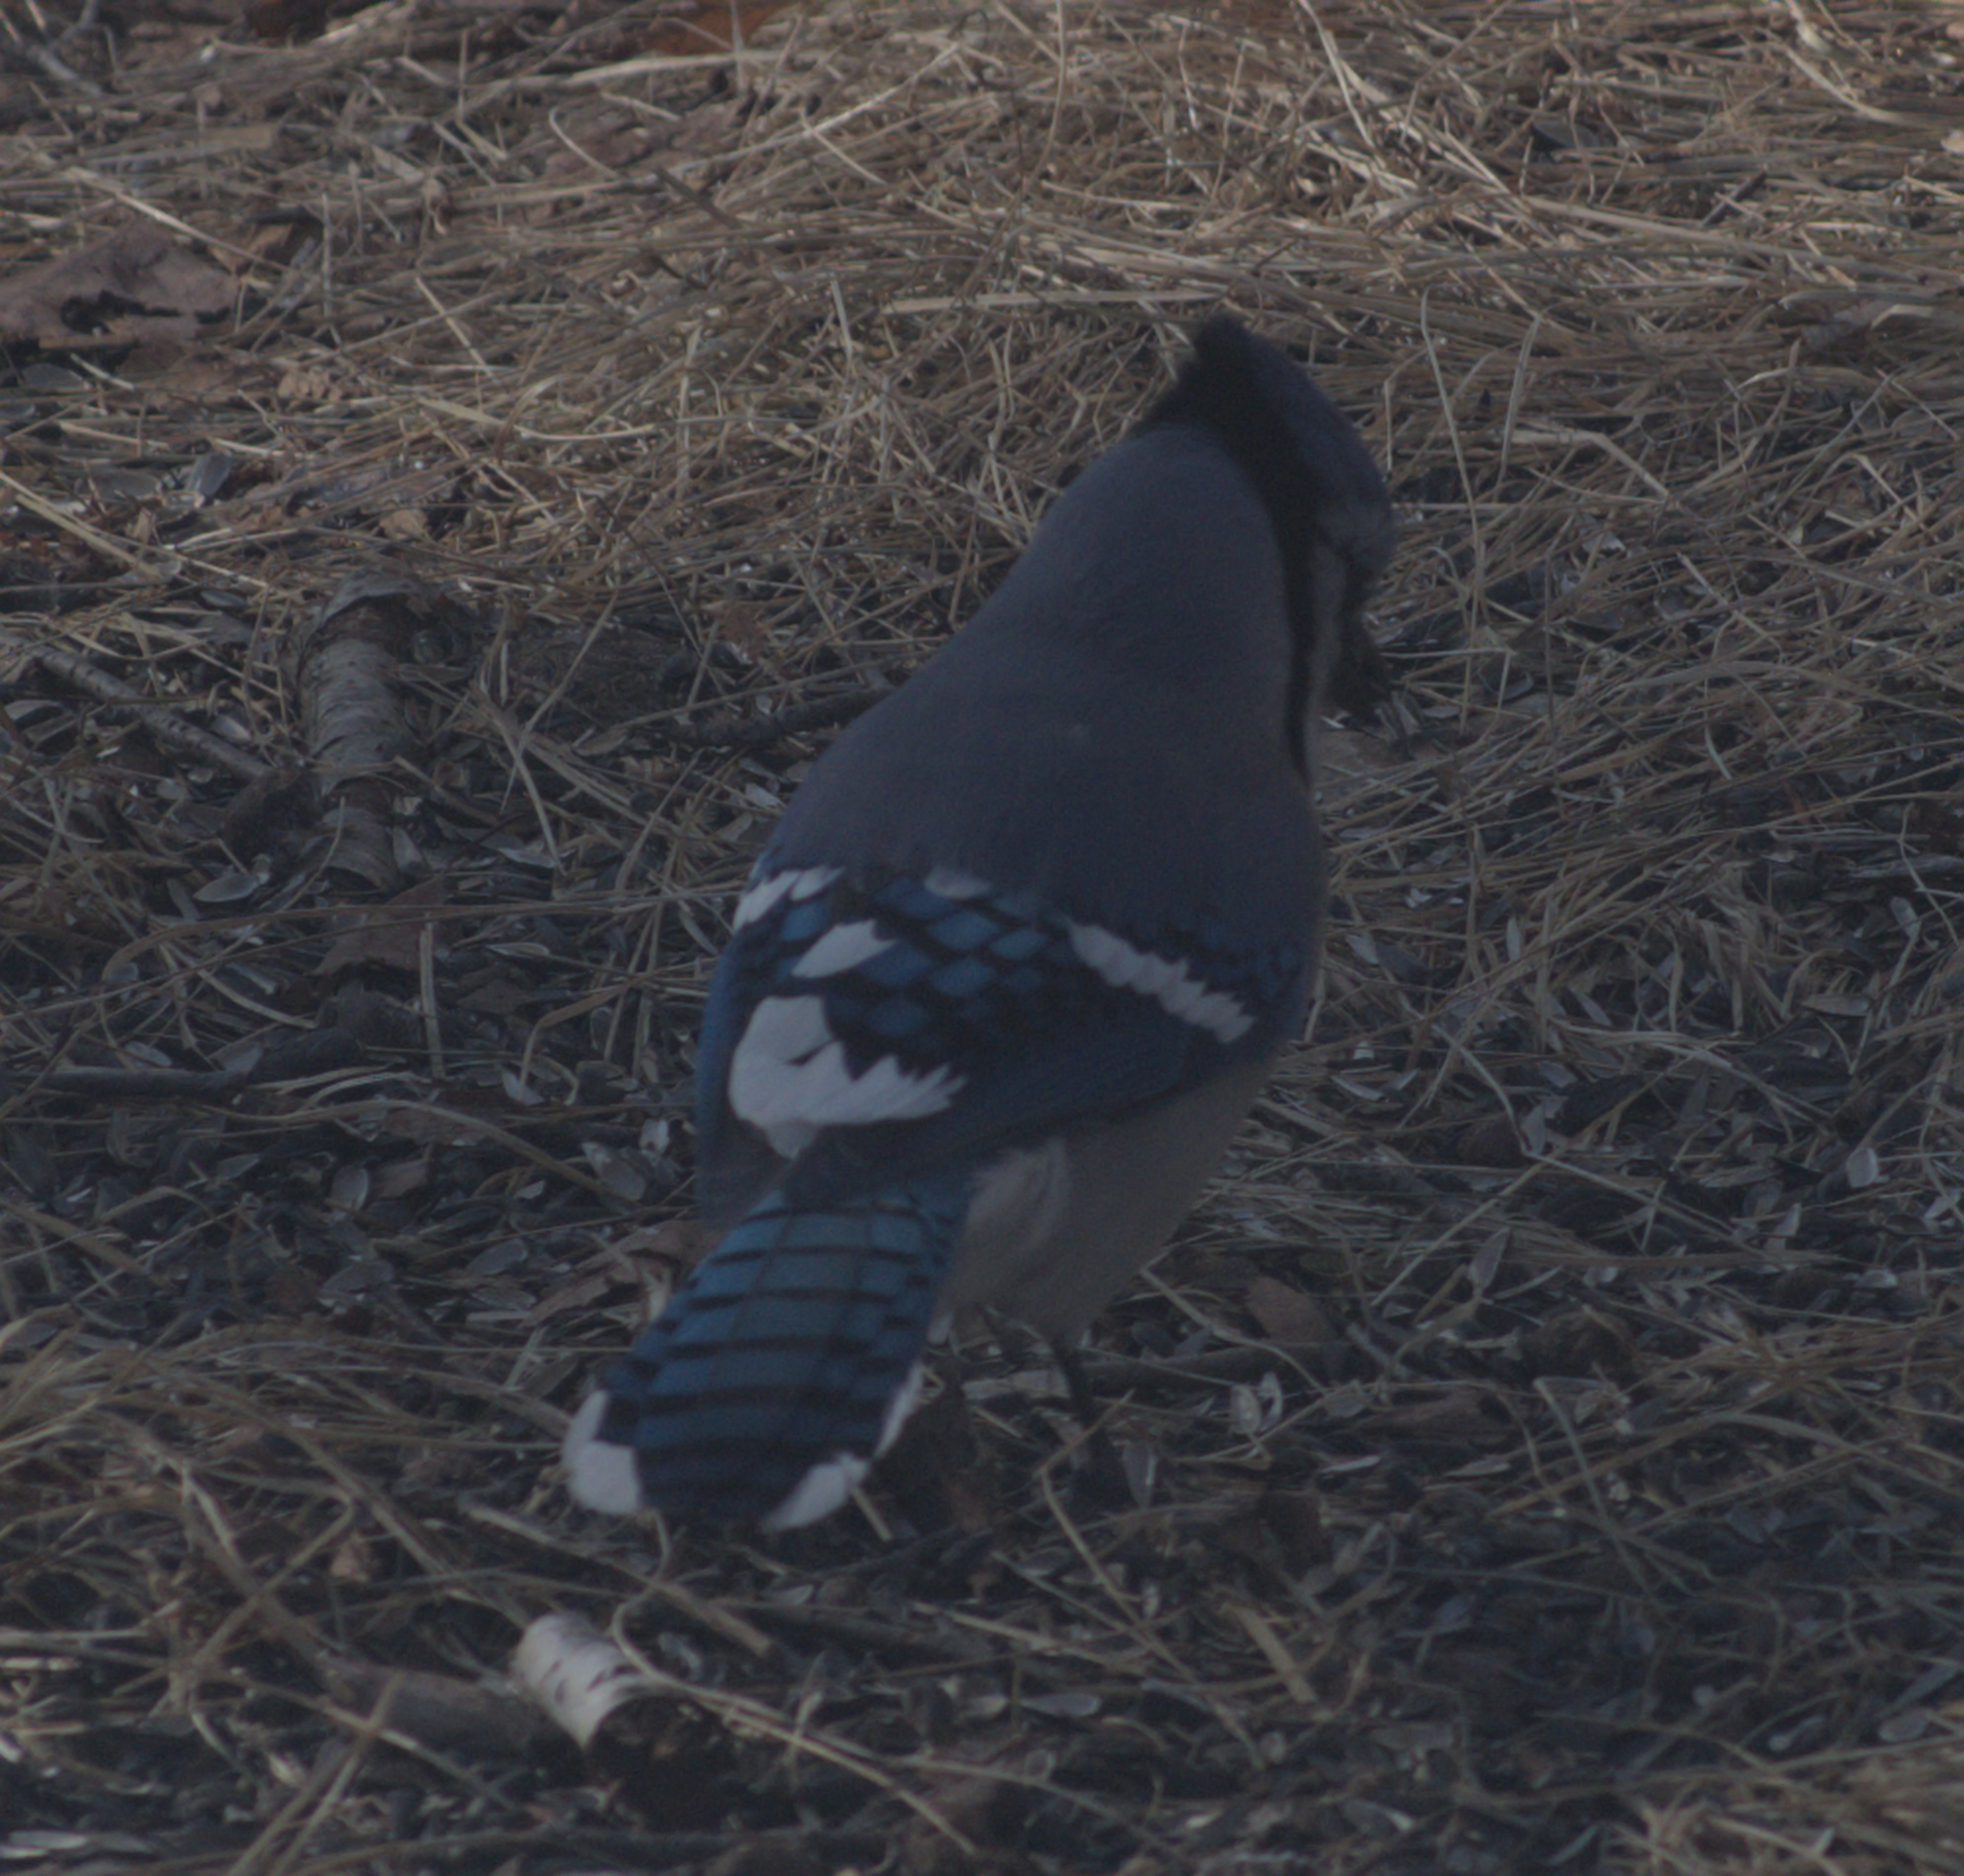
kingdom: Animalia
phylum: Chordata
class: Aves
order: Passeriformes
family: Corvidae
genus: Cyanocitta
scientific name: Cyanocitta cristata
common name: Blue jay
